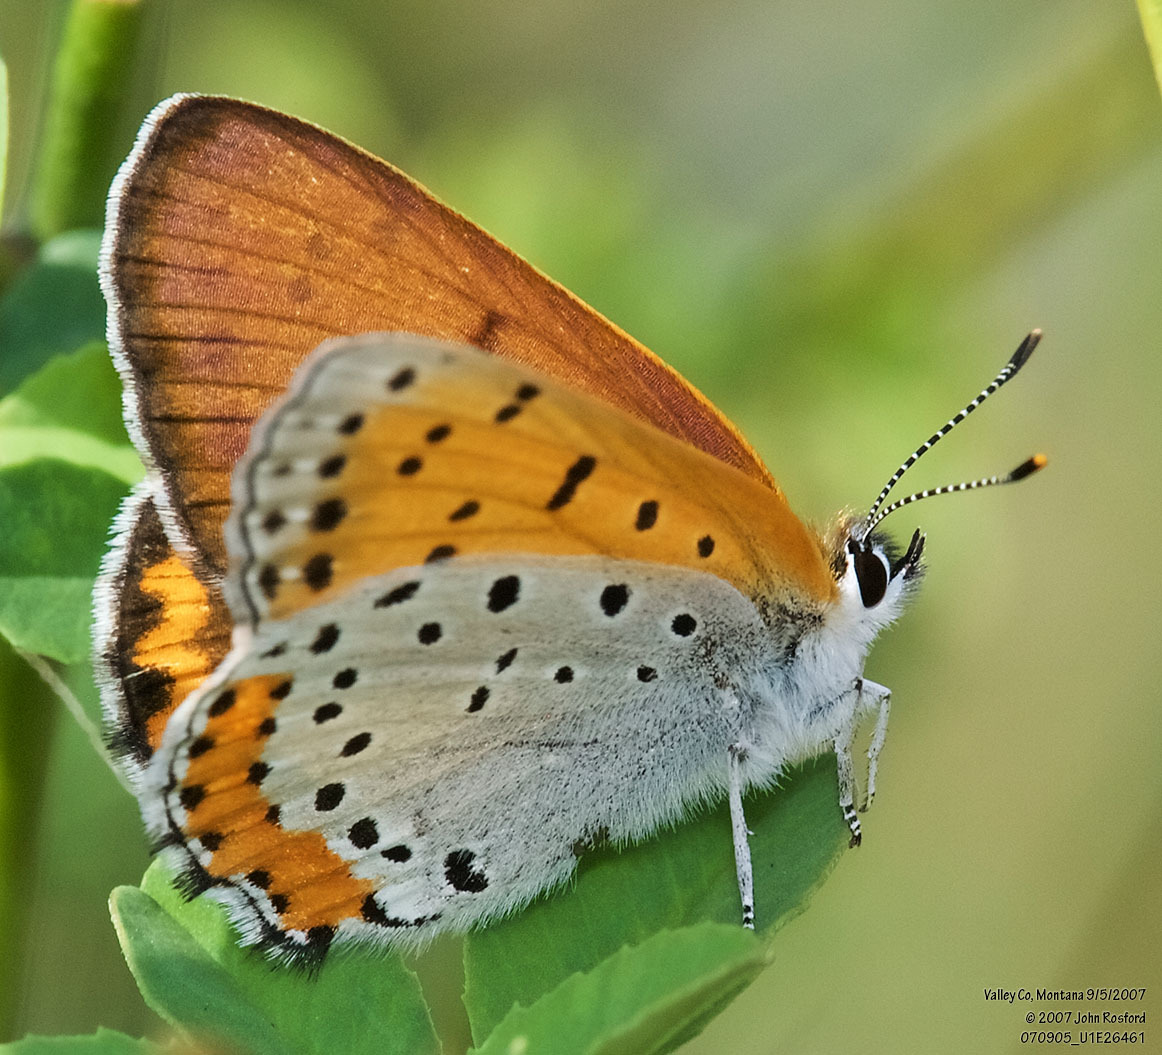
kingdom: Animalia
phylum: Arthropoda
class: Insecta
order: Lepidoptera
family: Lycaenidae
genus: Tharsalea
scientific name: Tharsalea hyllus
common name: Bronze copper
